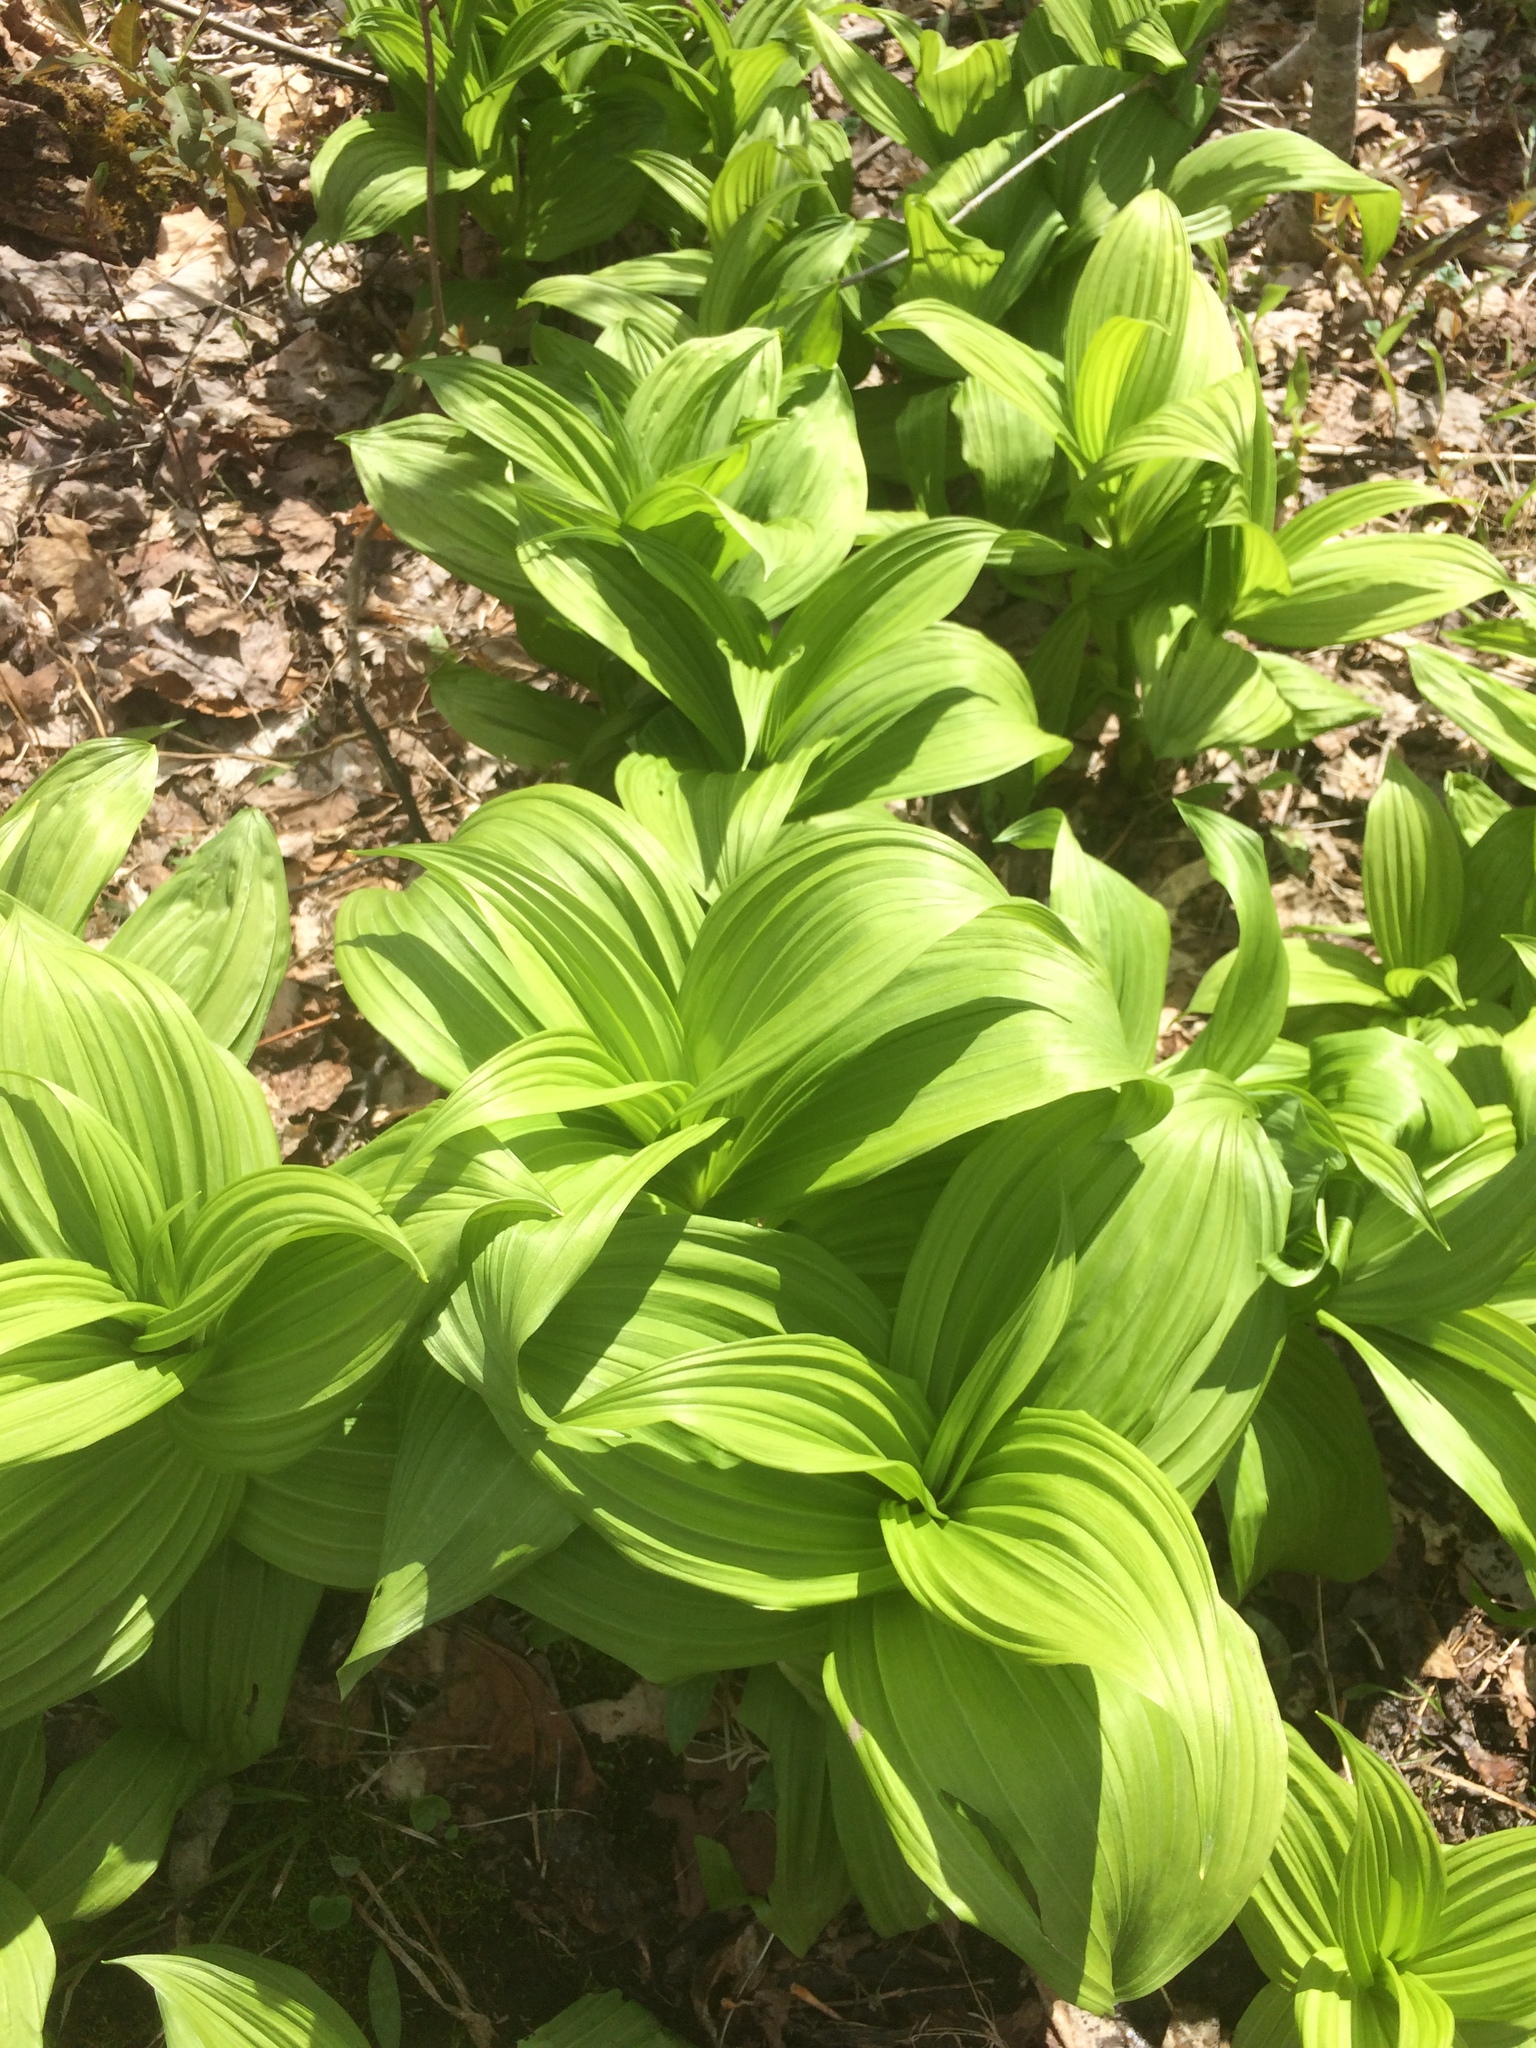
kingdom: Plantae
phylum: Tracheophyta
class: Liliopsida
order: Liliales
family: Melanthiaceae
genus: Veratrum
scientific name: Veratrum viride
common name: American false hellebore
